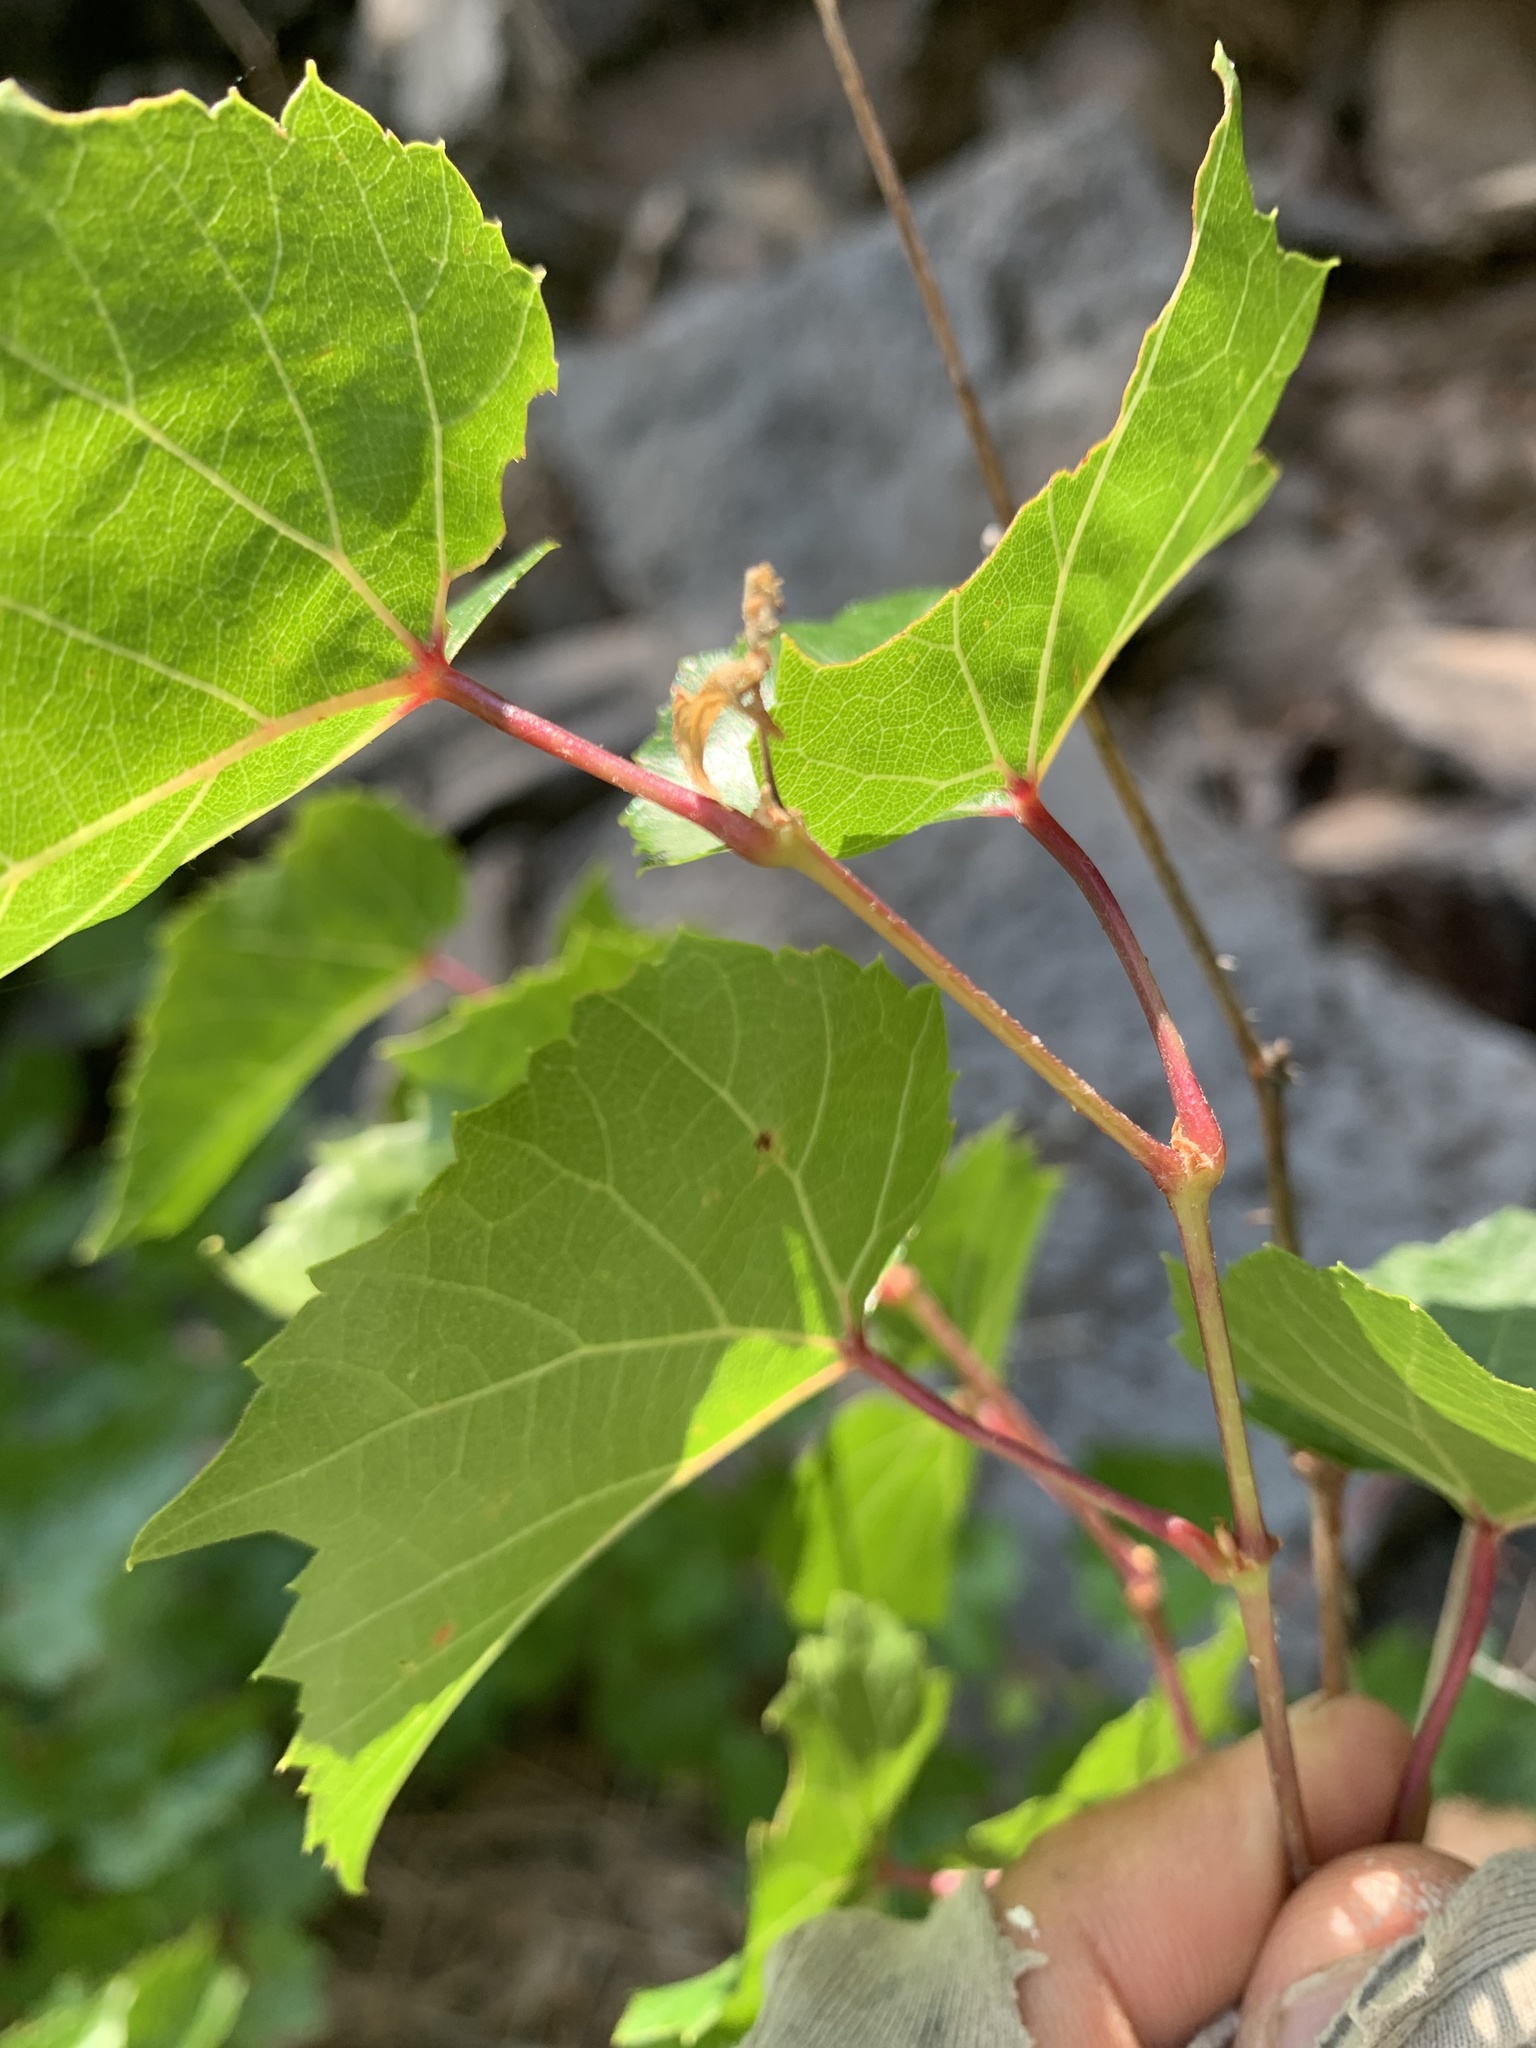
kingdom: Plantae
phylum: Tracheophyta
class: Magnoliopsida
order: Vitales
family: Vitaceae
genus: Vitis
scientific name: Vitis arizonica
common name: Canyon grape
